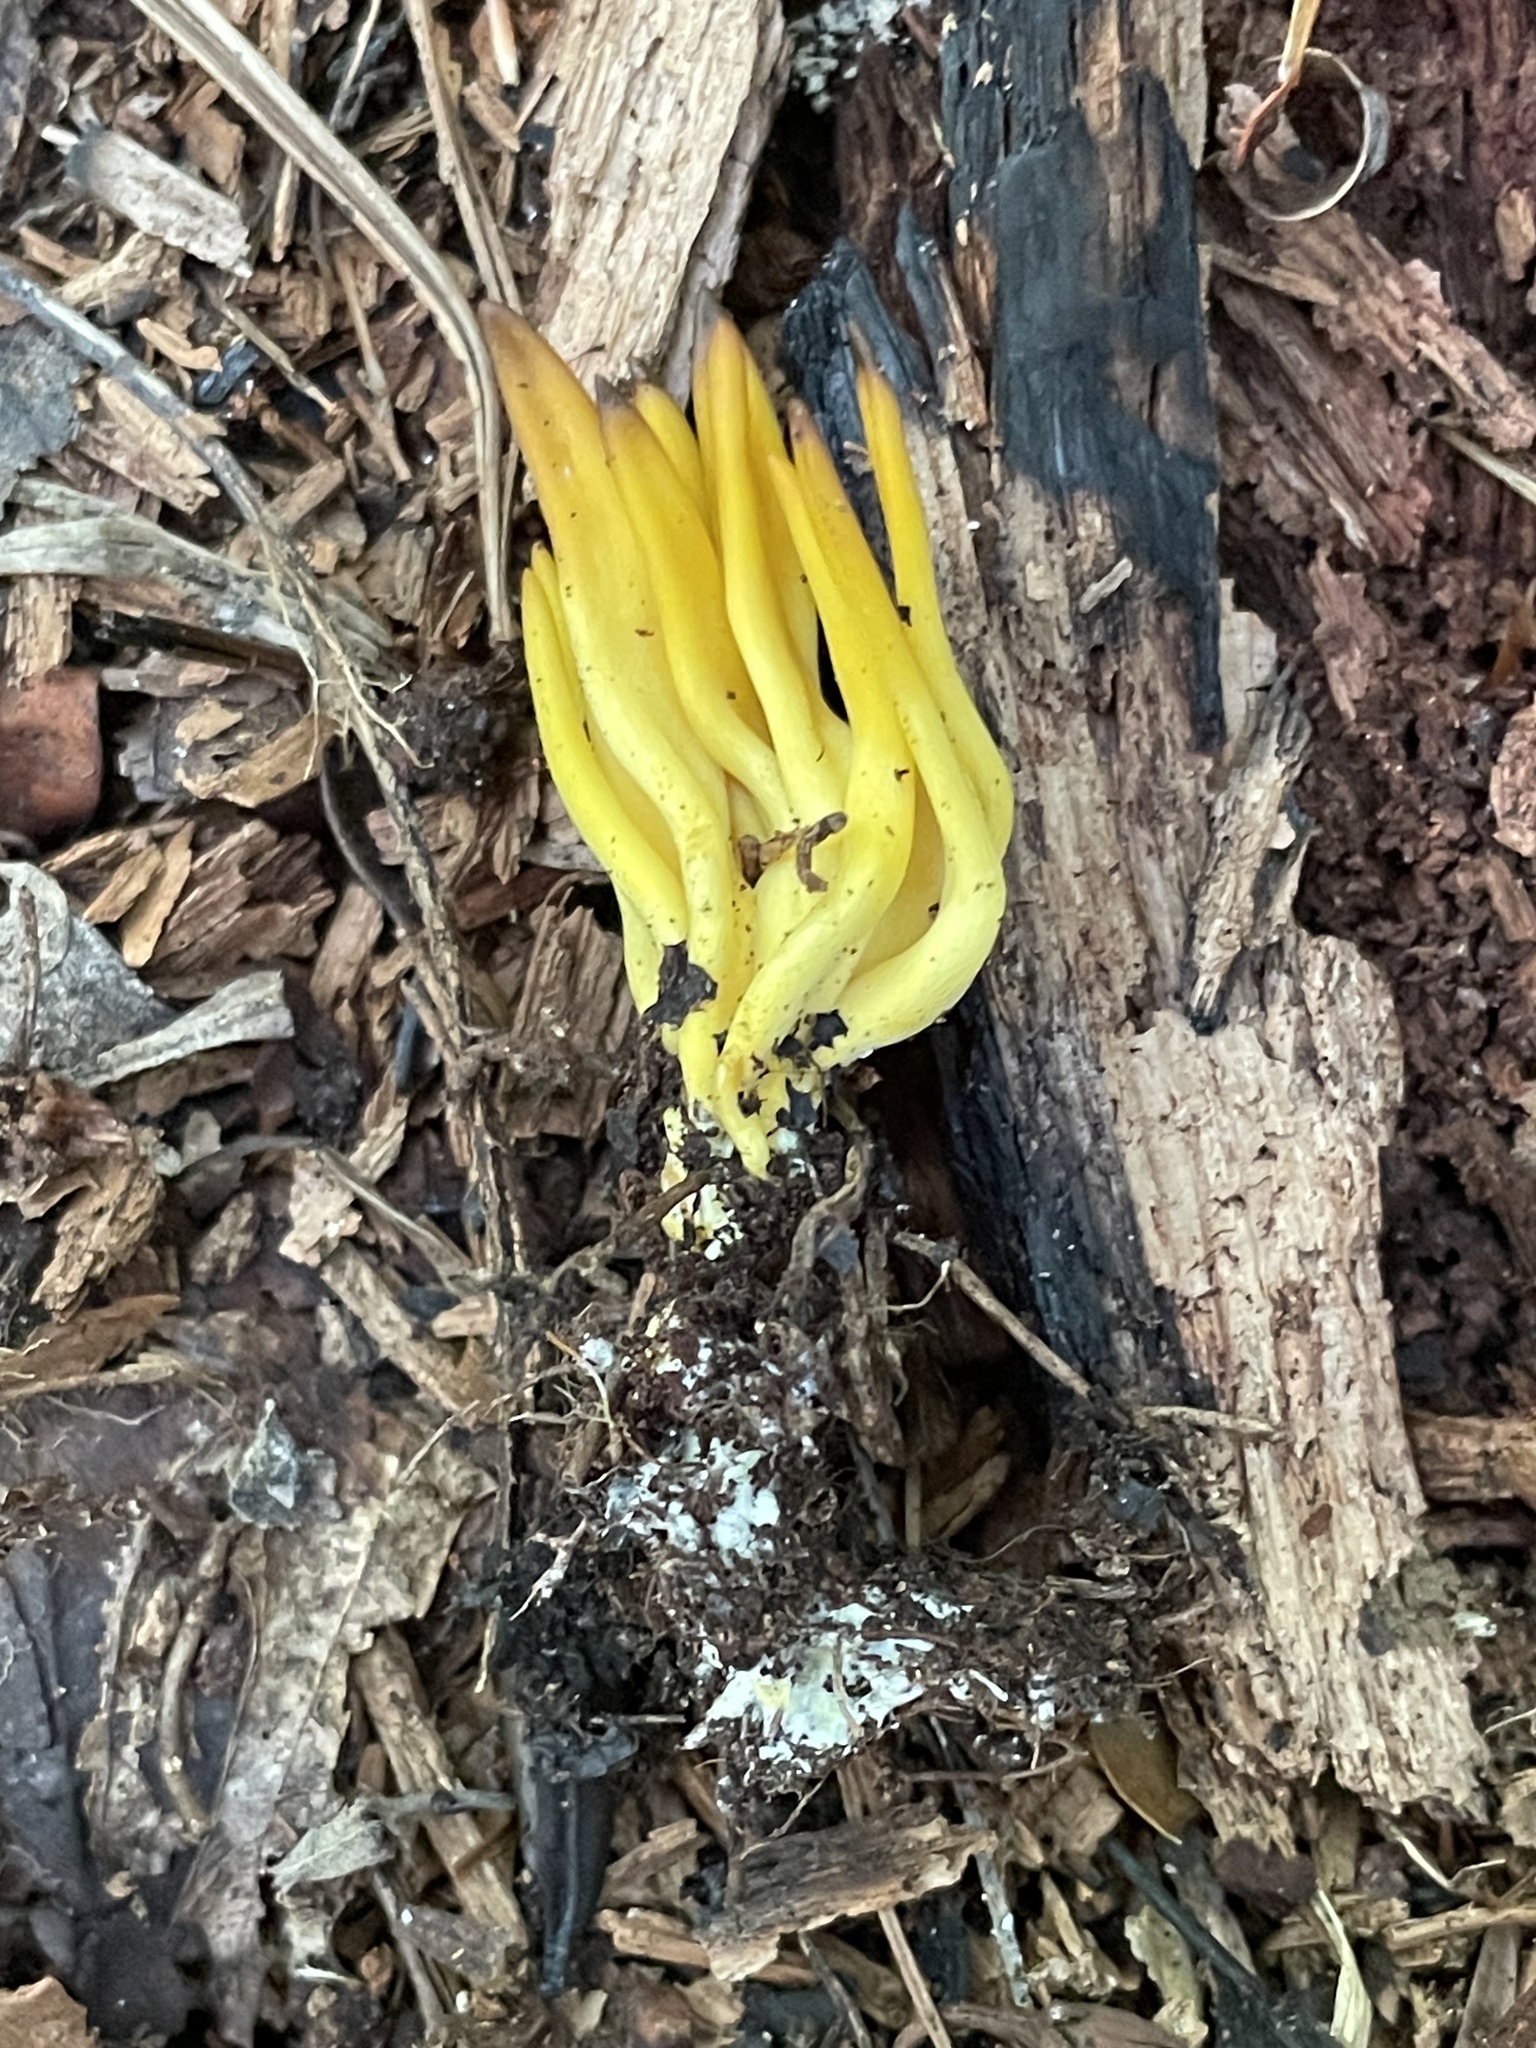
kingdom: Fungi
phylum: Basidiomycota
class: Agaricomycetes
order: Agaricales
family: Clavariaceae
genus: Clavulinopsis
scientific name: Clavulinopsis fusiformis
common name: Golden spindles
